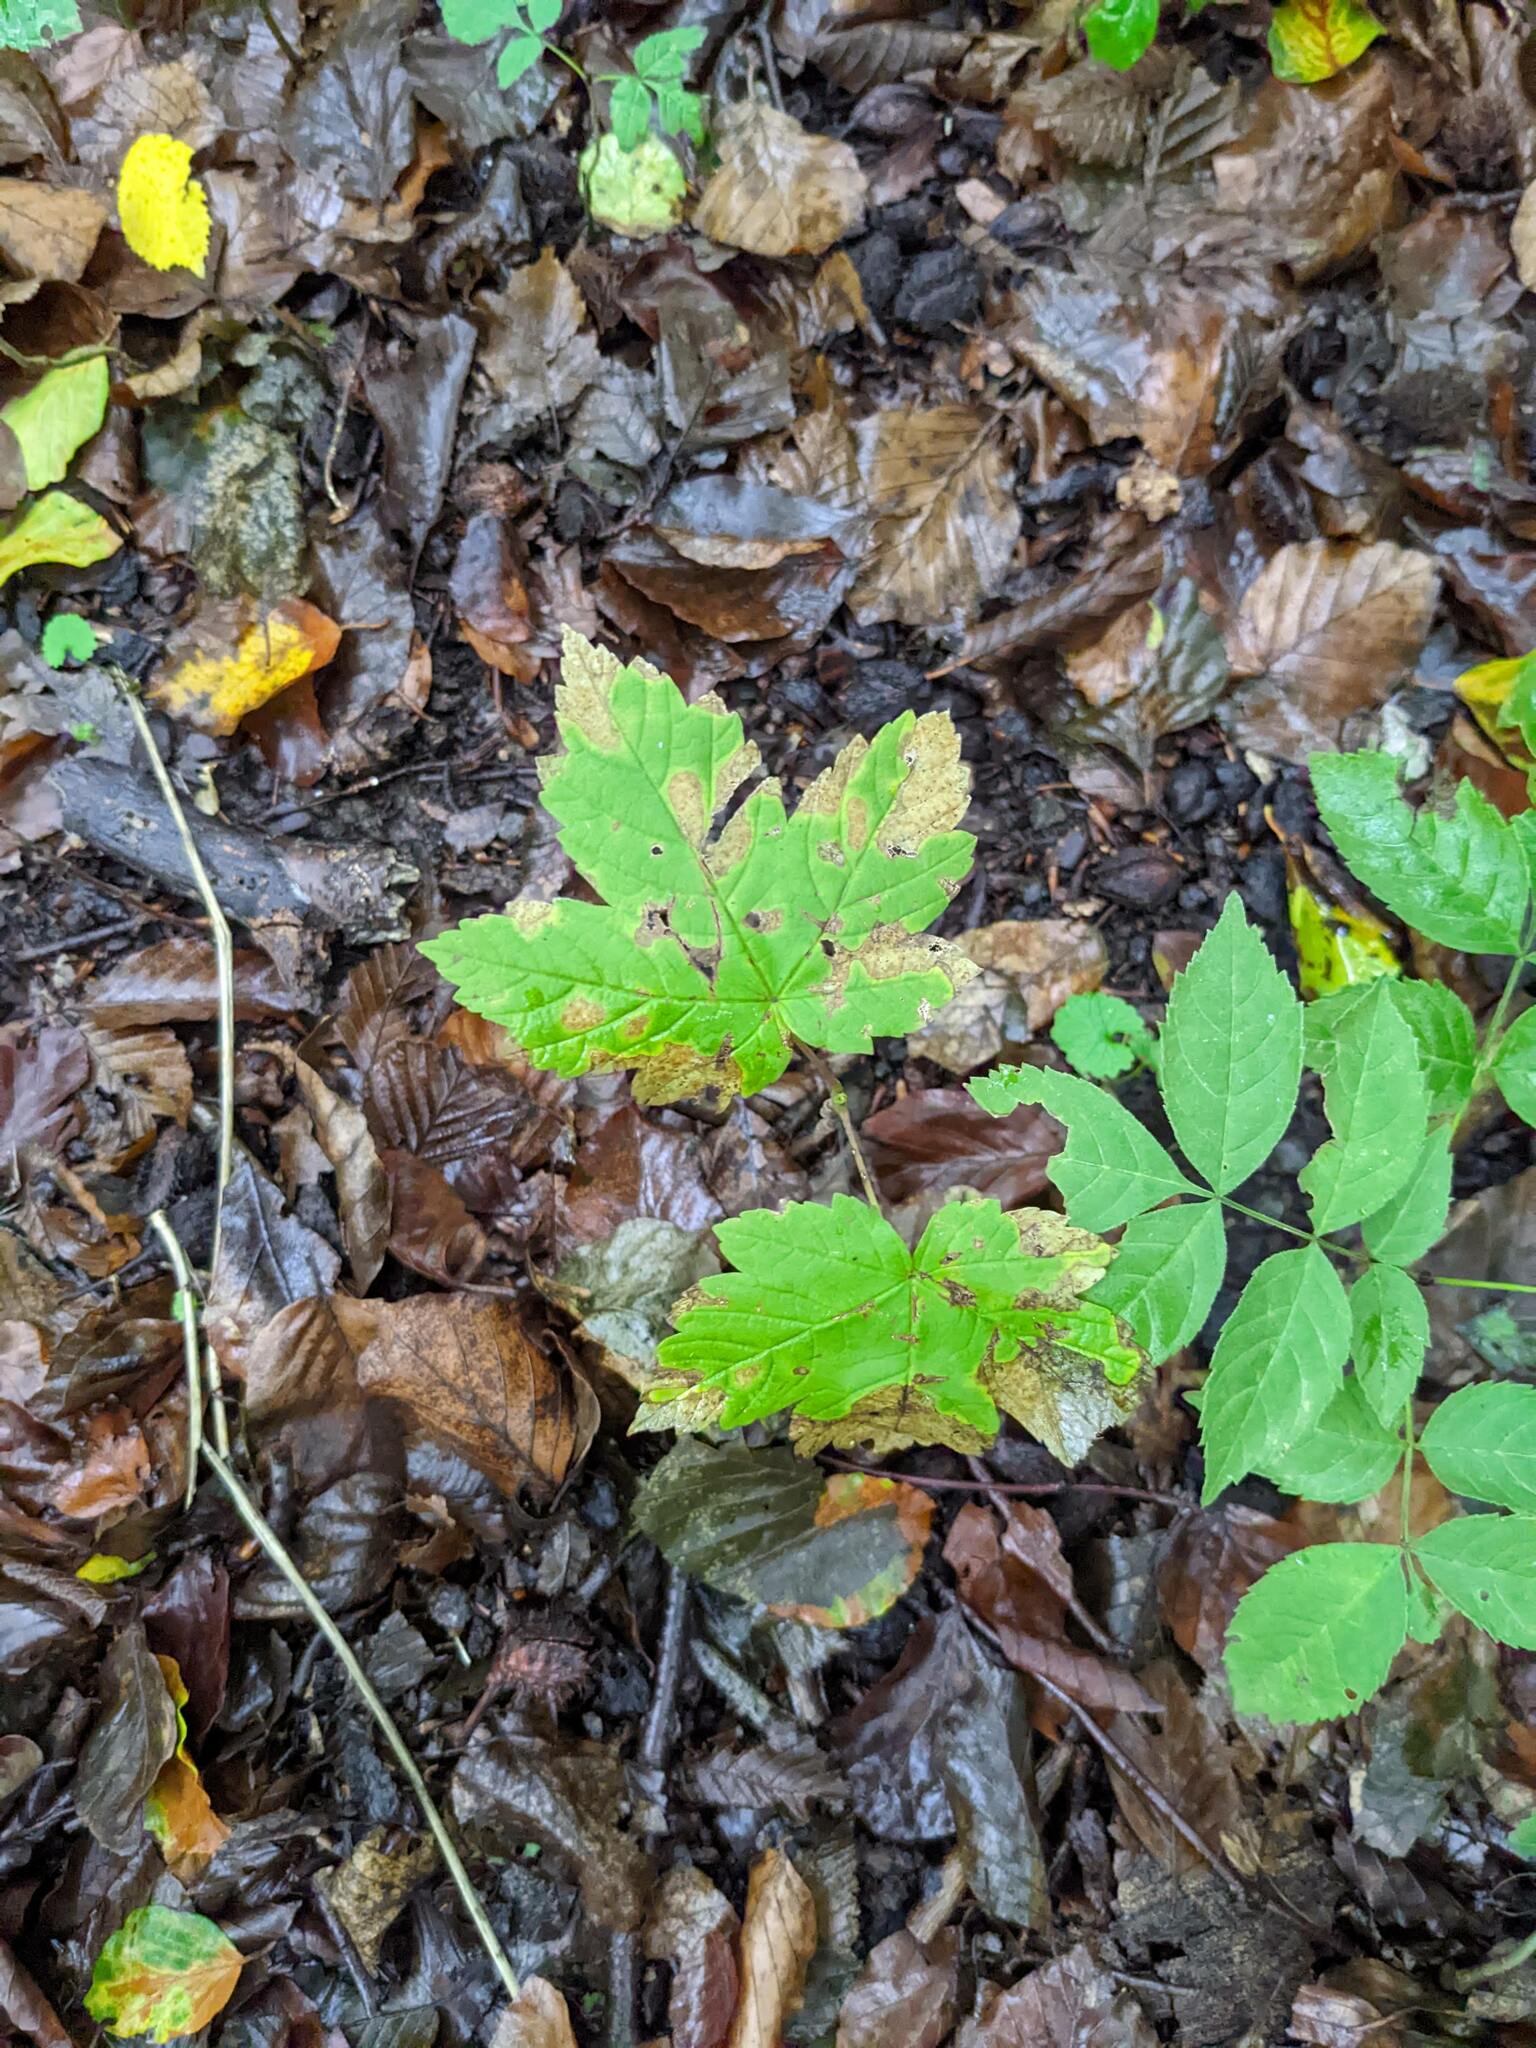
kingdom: Plantae
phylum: Tracheophyta
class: Magnoliopsida
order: Sapindales
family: Sapindaceae
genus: Acer
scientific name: Acer pseudoplatanus
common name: Sycamore
